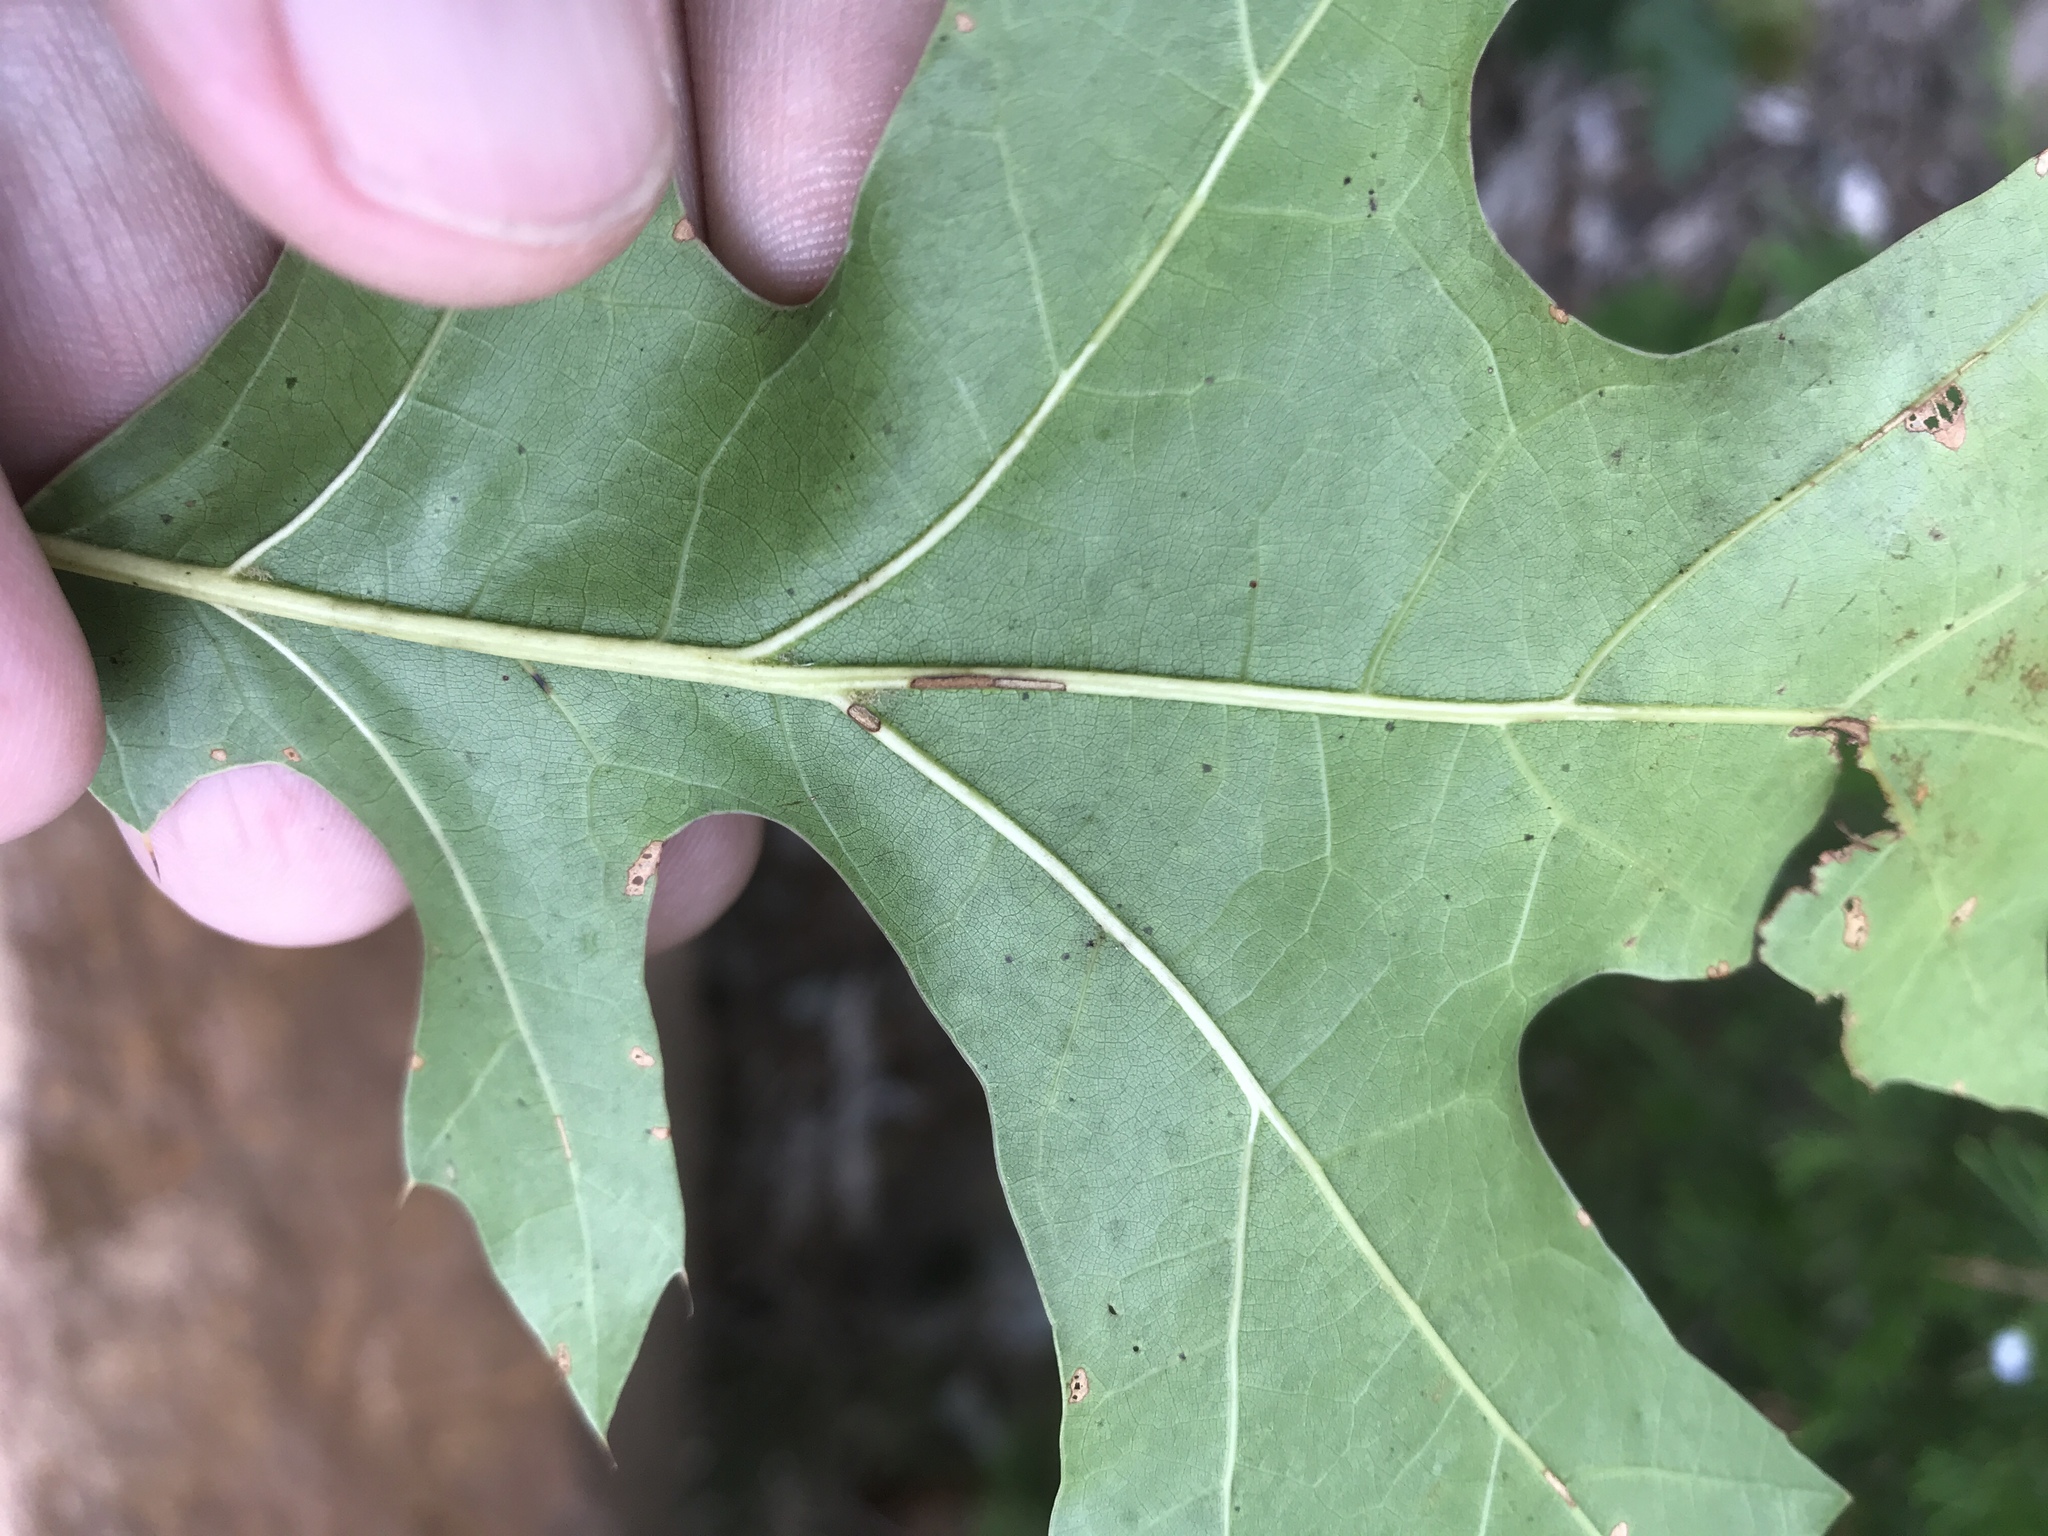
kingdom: Plantae
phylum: Tracheophyta
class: Magnoliopsida
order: Fagales
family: Fagaceae
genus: Quercus
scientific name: Quercus coccinea
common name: Scarlet oak
